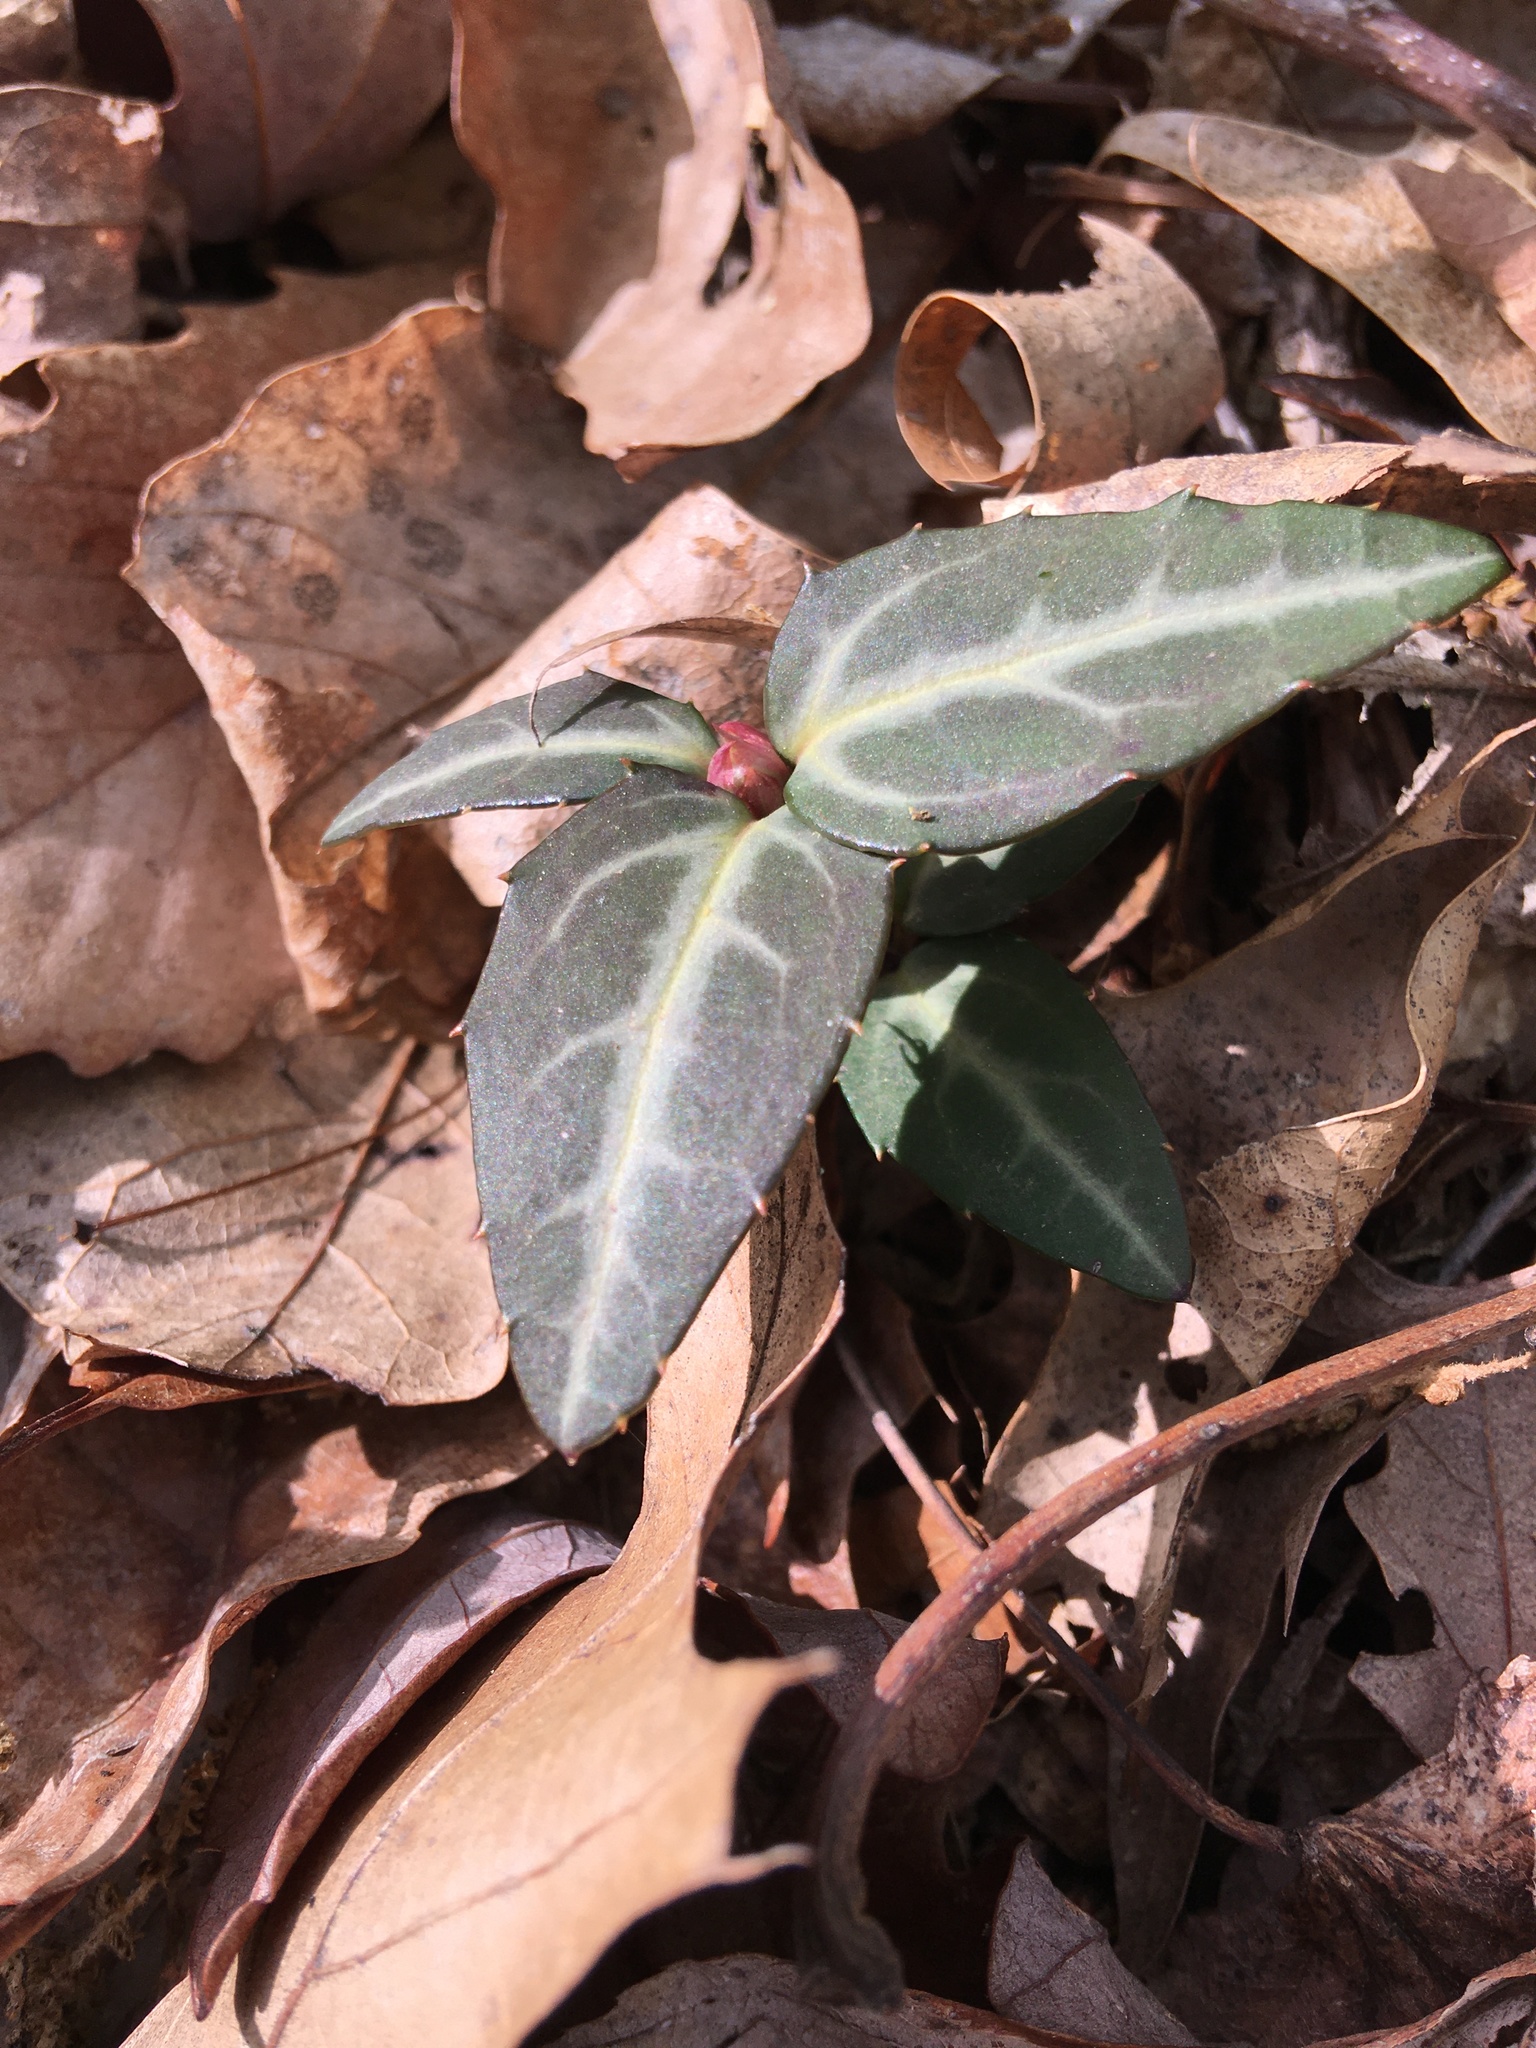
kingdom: Plantae
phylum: Tracheophyta
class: Magnoliopsida
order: Ericales
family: Ericaceae
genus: Chimaphila
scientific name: Chimaphila maculata
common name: Spotted pipsissewa
